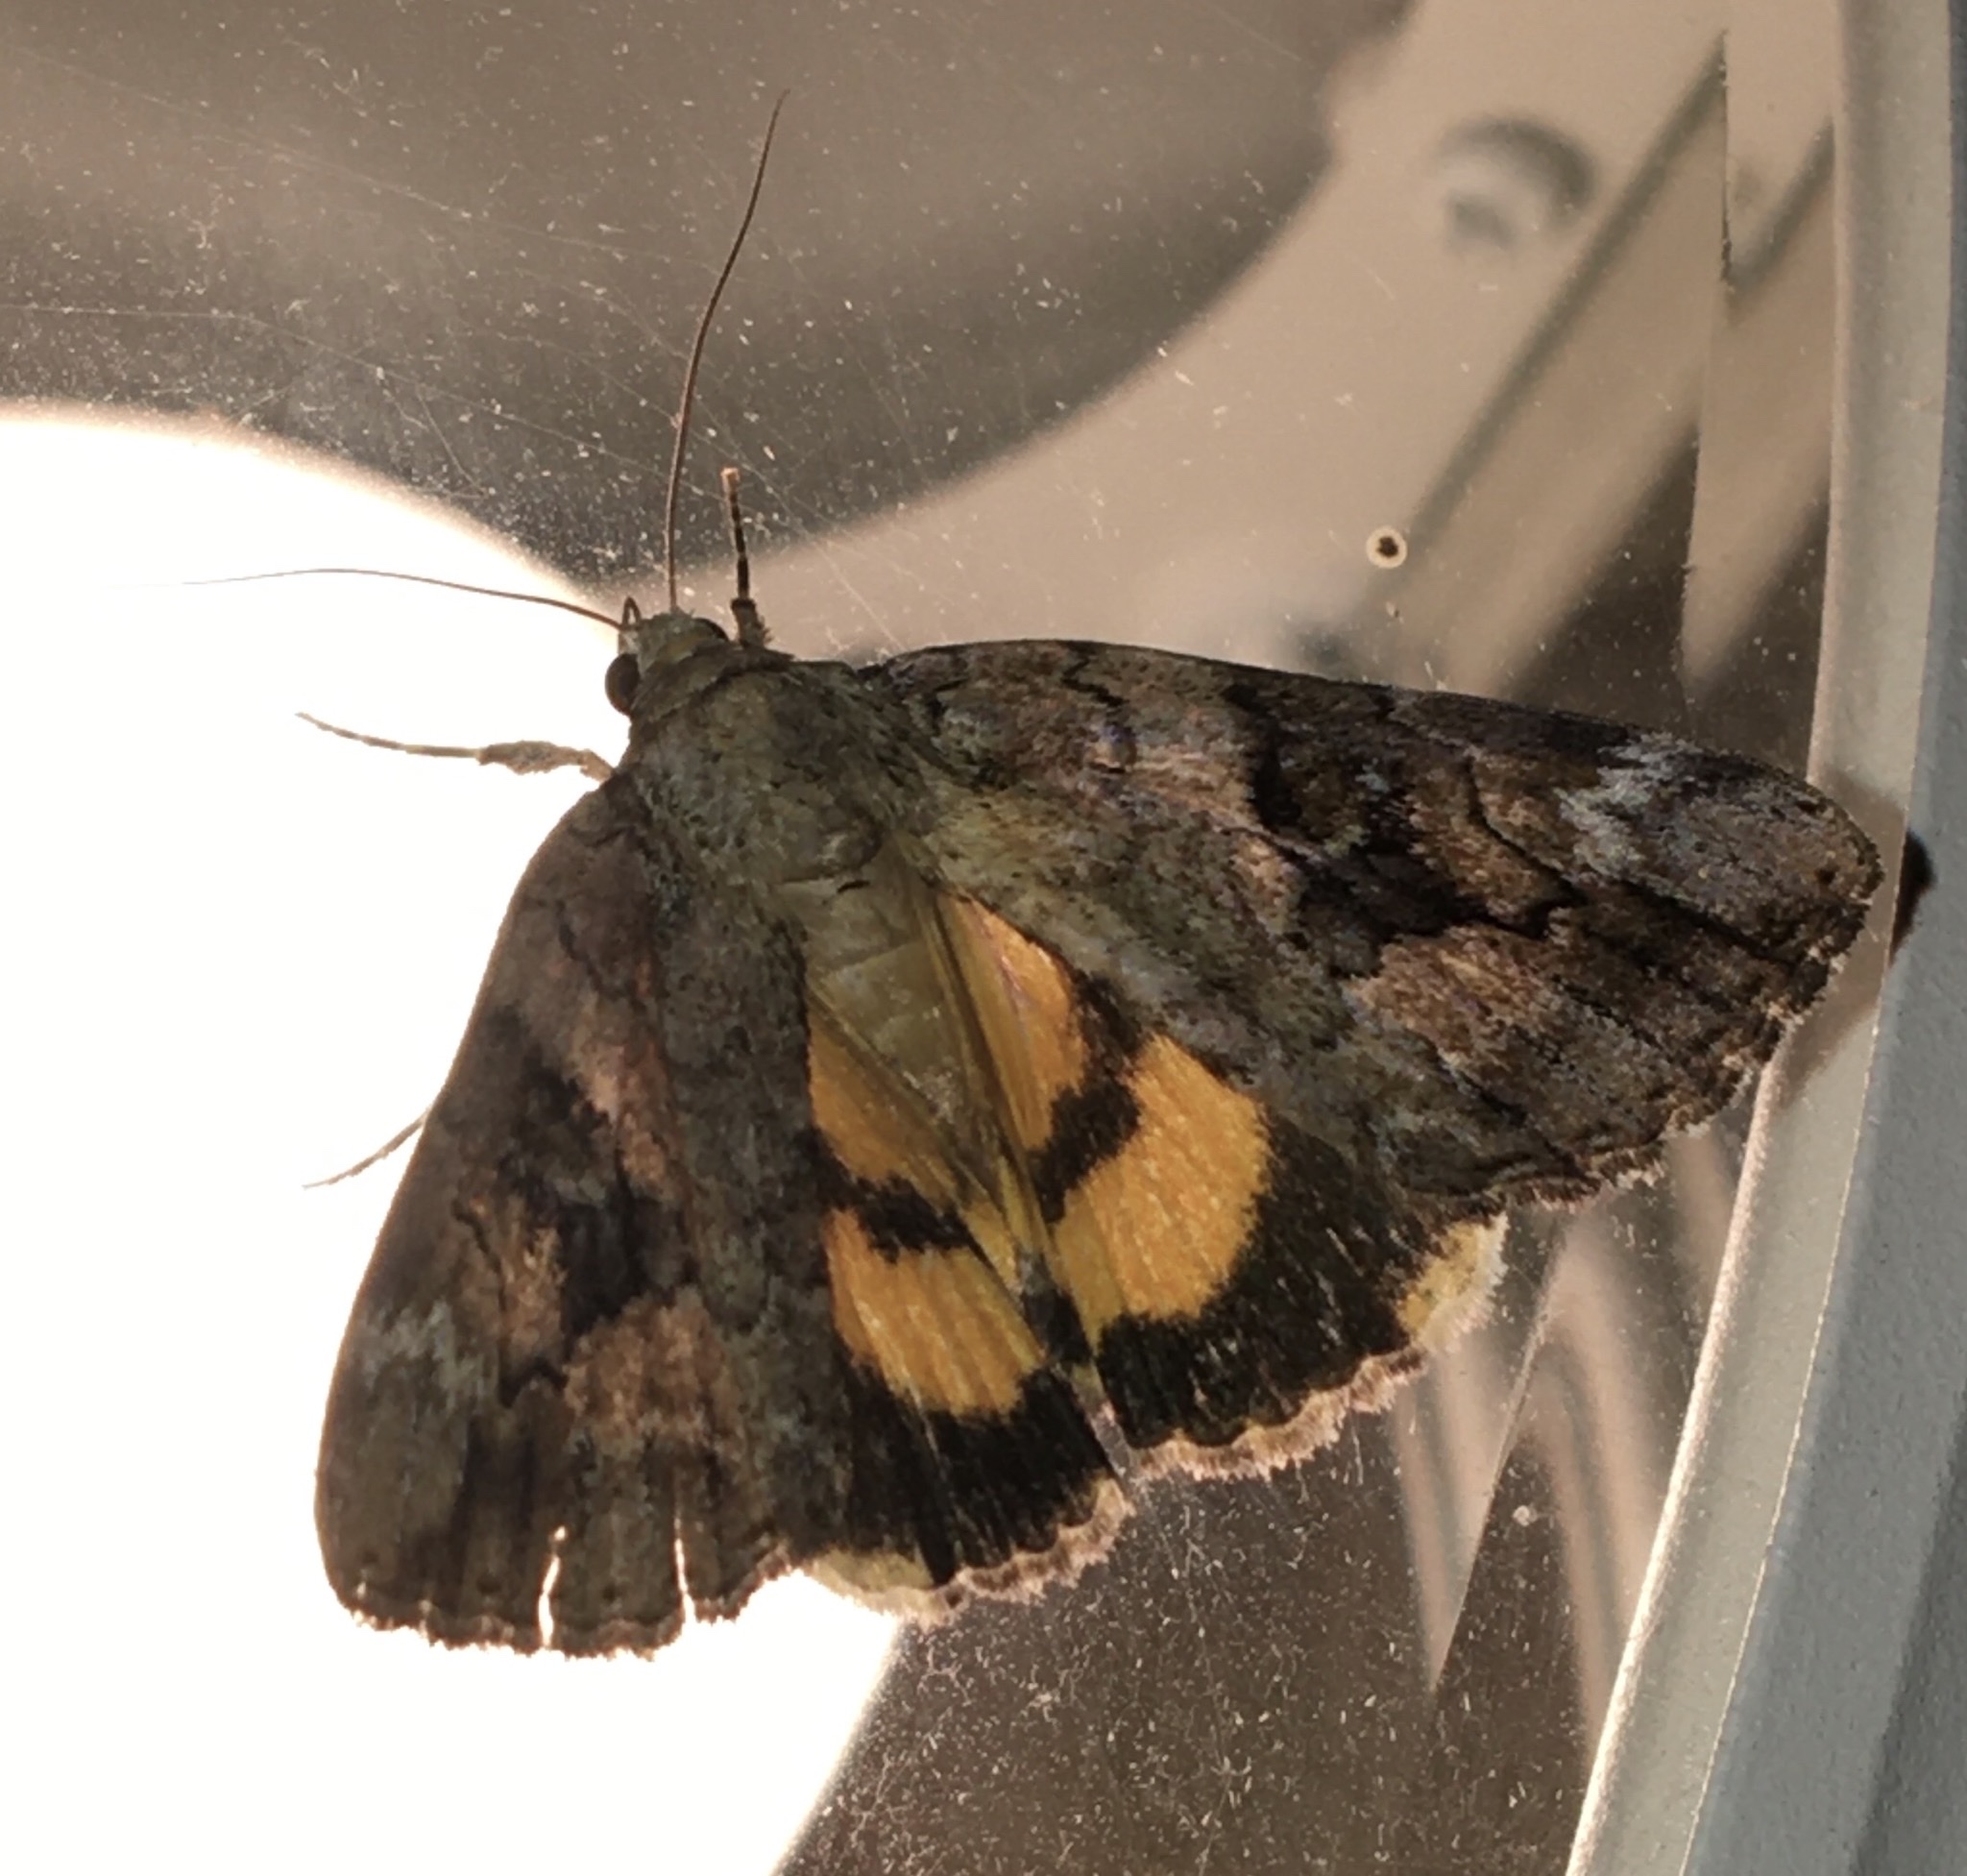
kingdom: Animalia
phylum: Arthropoda
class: Insecta
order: Lepidoptera
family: Erebidae
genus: Catocala
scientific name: Catocala micronympha
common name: Little nymph underwing
